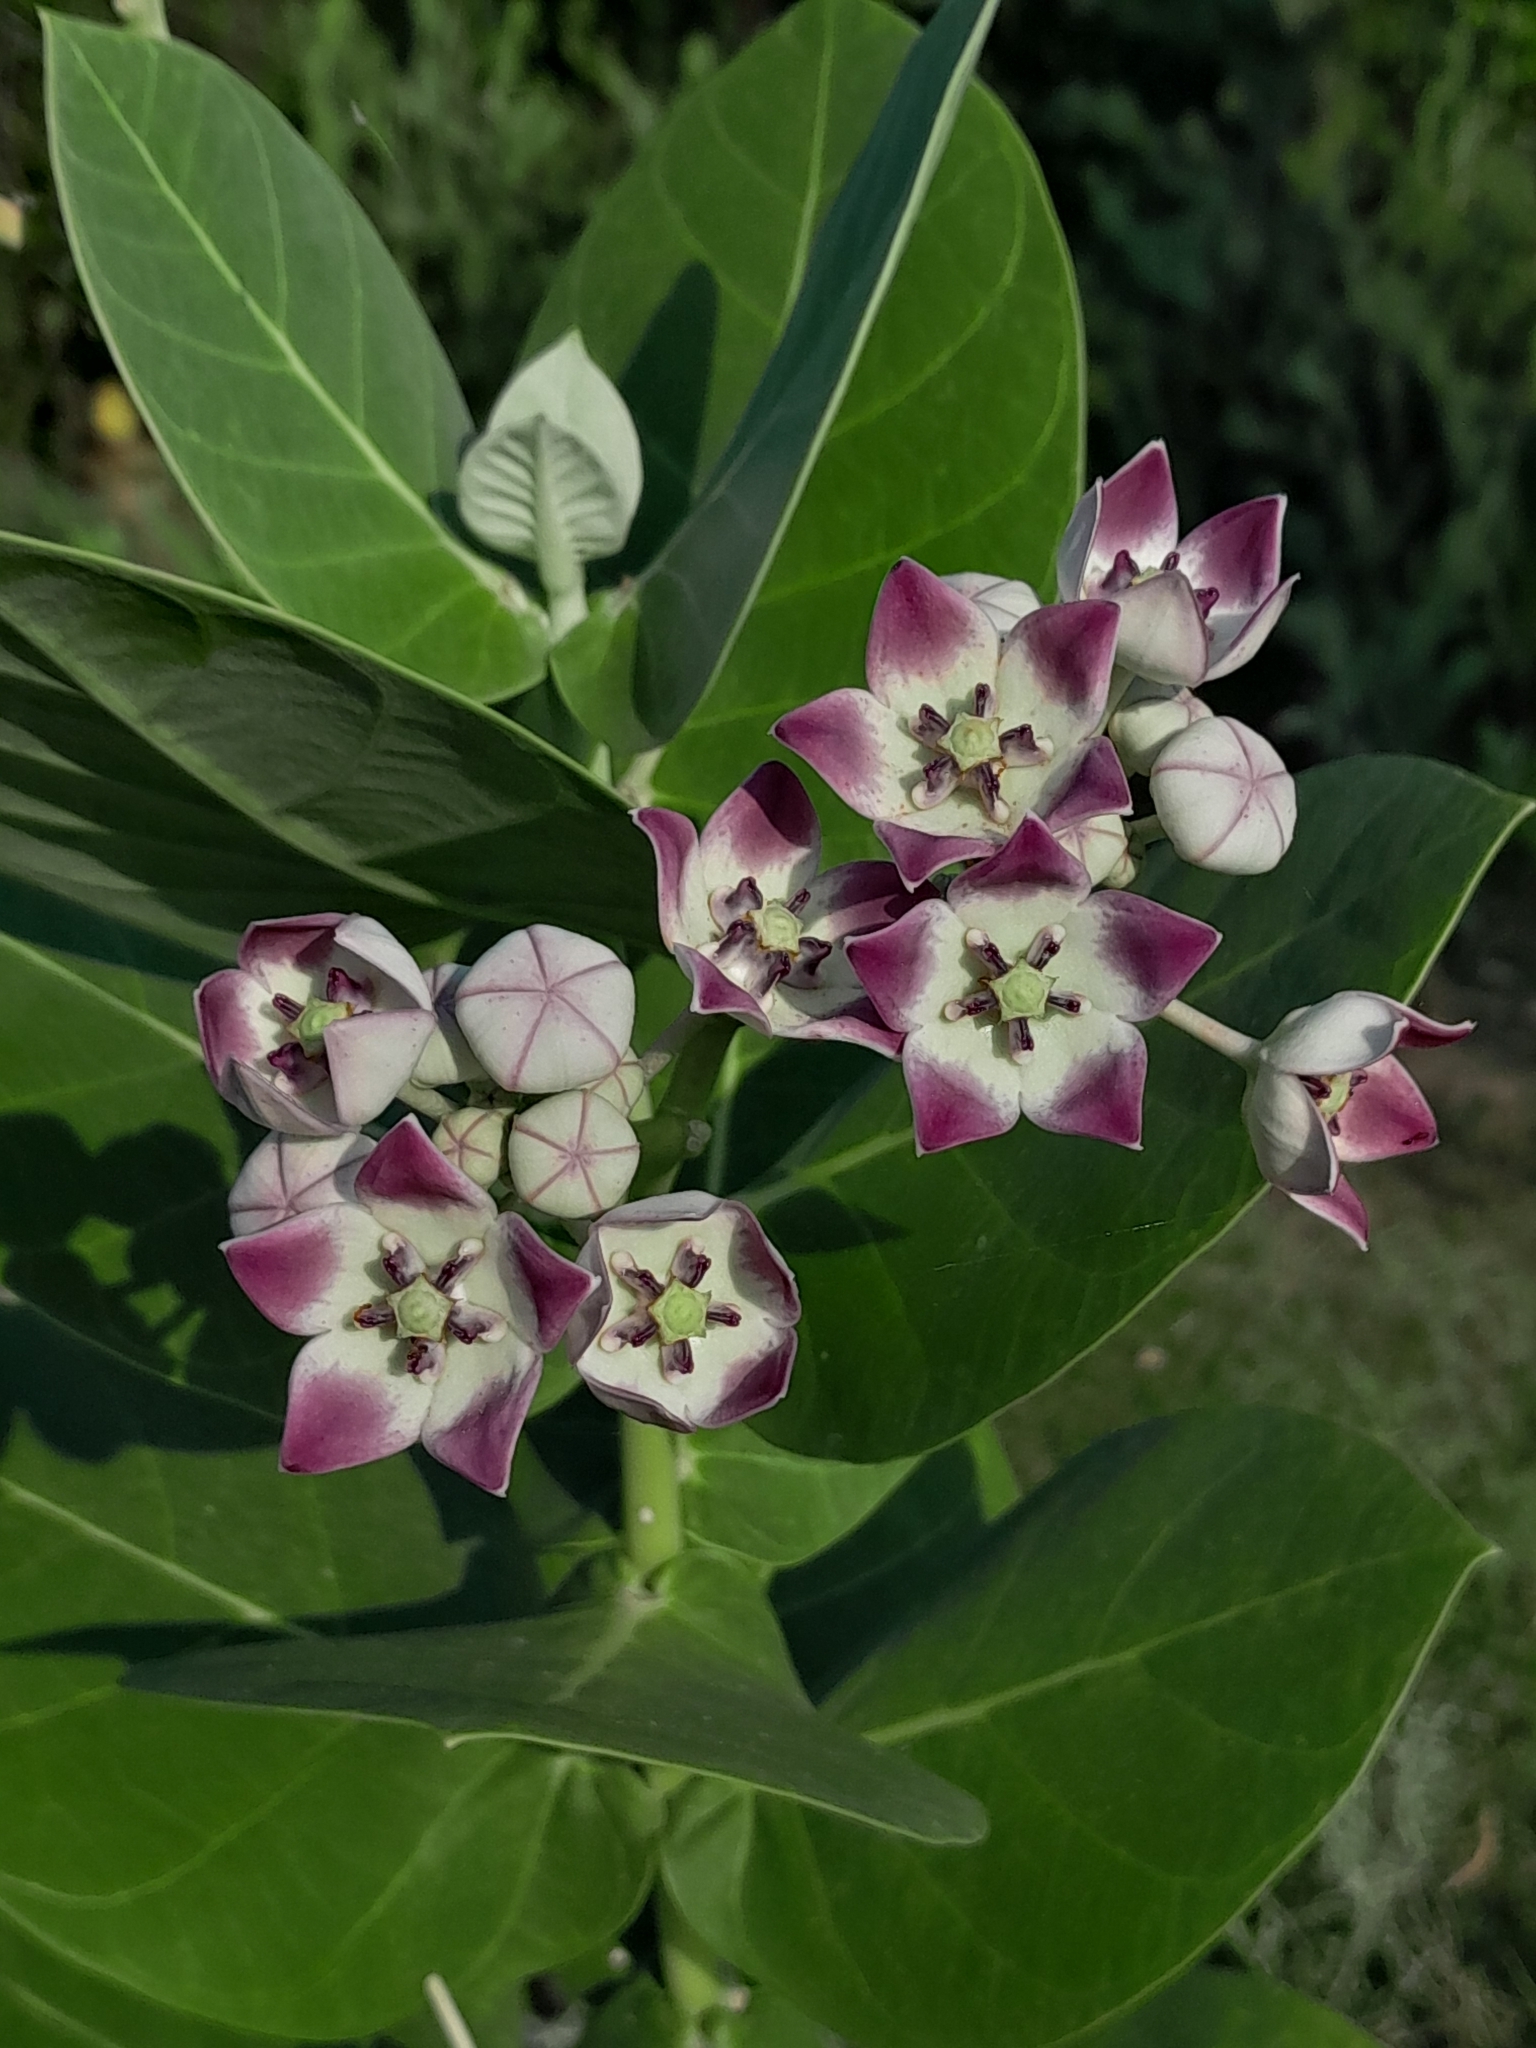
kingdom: Plantae
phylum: Tracheophyta
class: Magnoliopsida
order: Gentianales
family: Apocynaceae
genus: Calotropis
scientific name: Calotropis procera
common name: Roostertree
